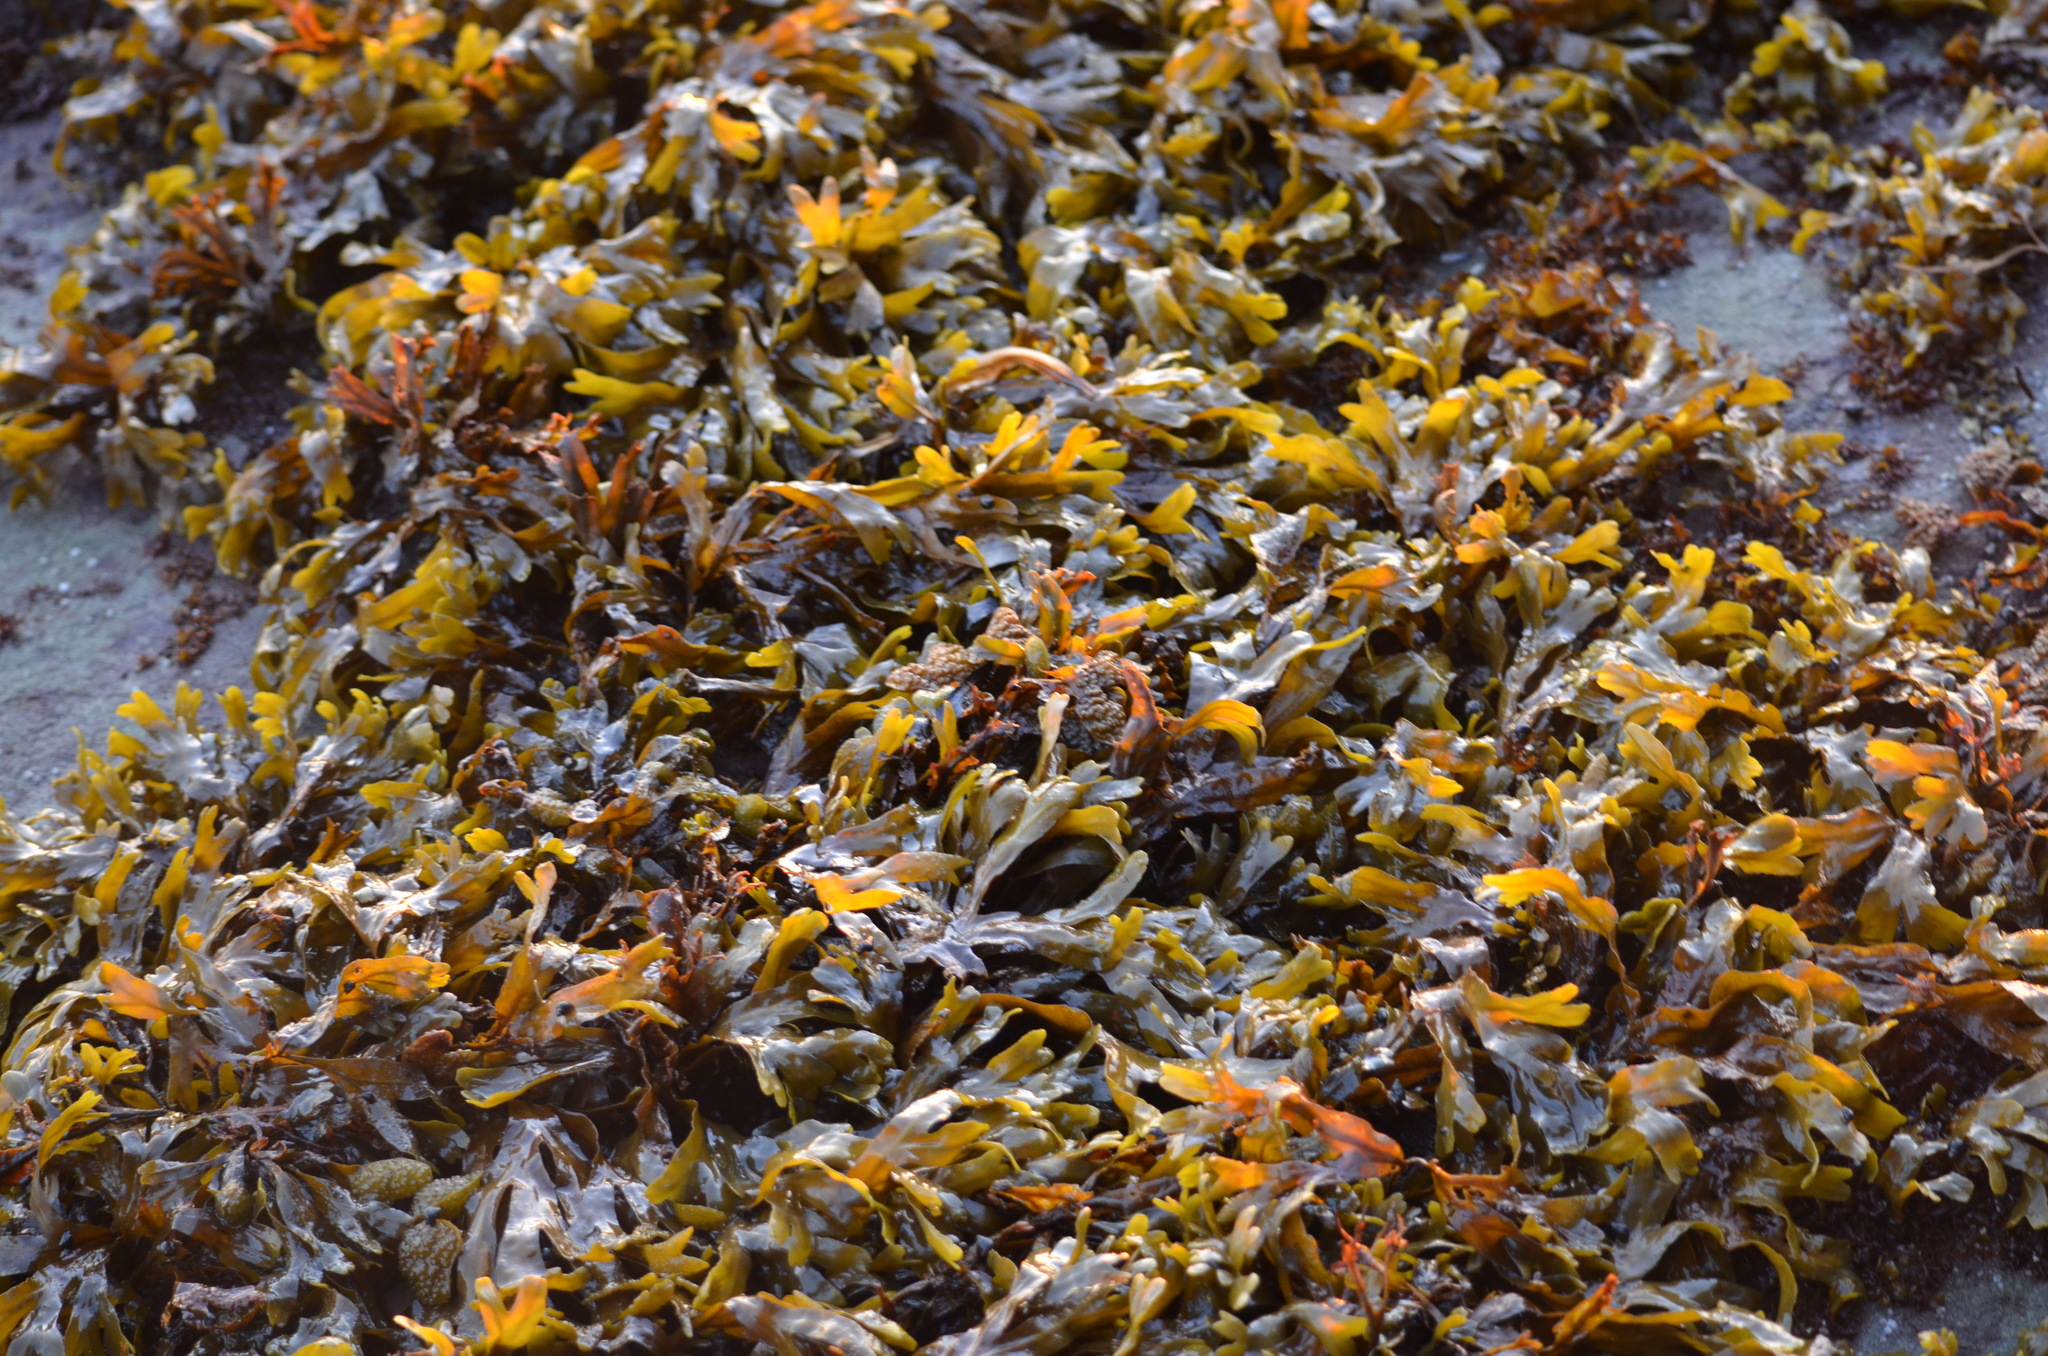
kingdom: Chromista
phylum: Ochrophyta
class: Phaeophyceae
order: Fucales
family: Fucaceae
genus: Fucus
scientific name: Fucus distichus
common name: Rockweed
